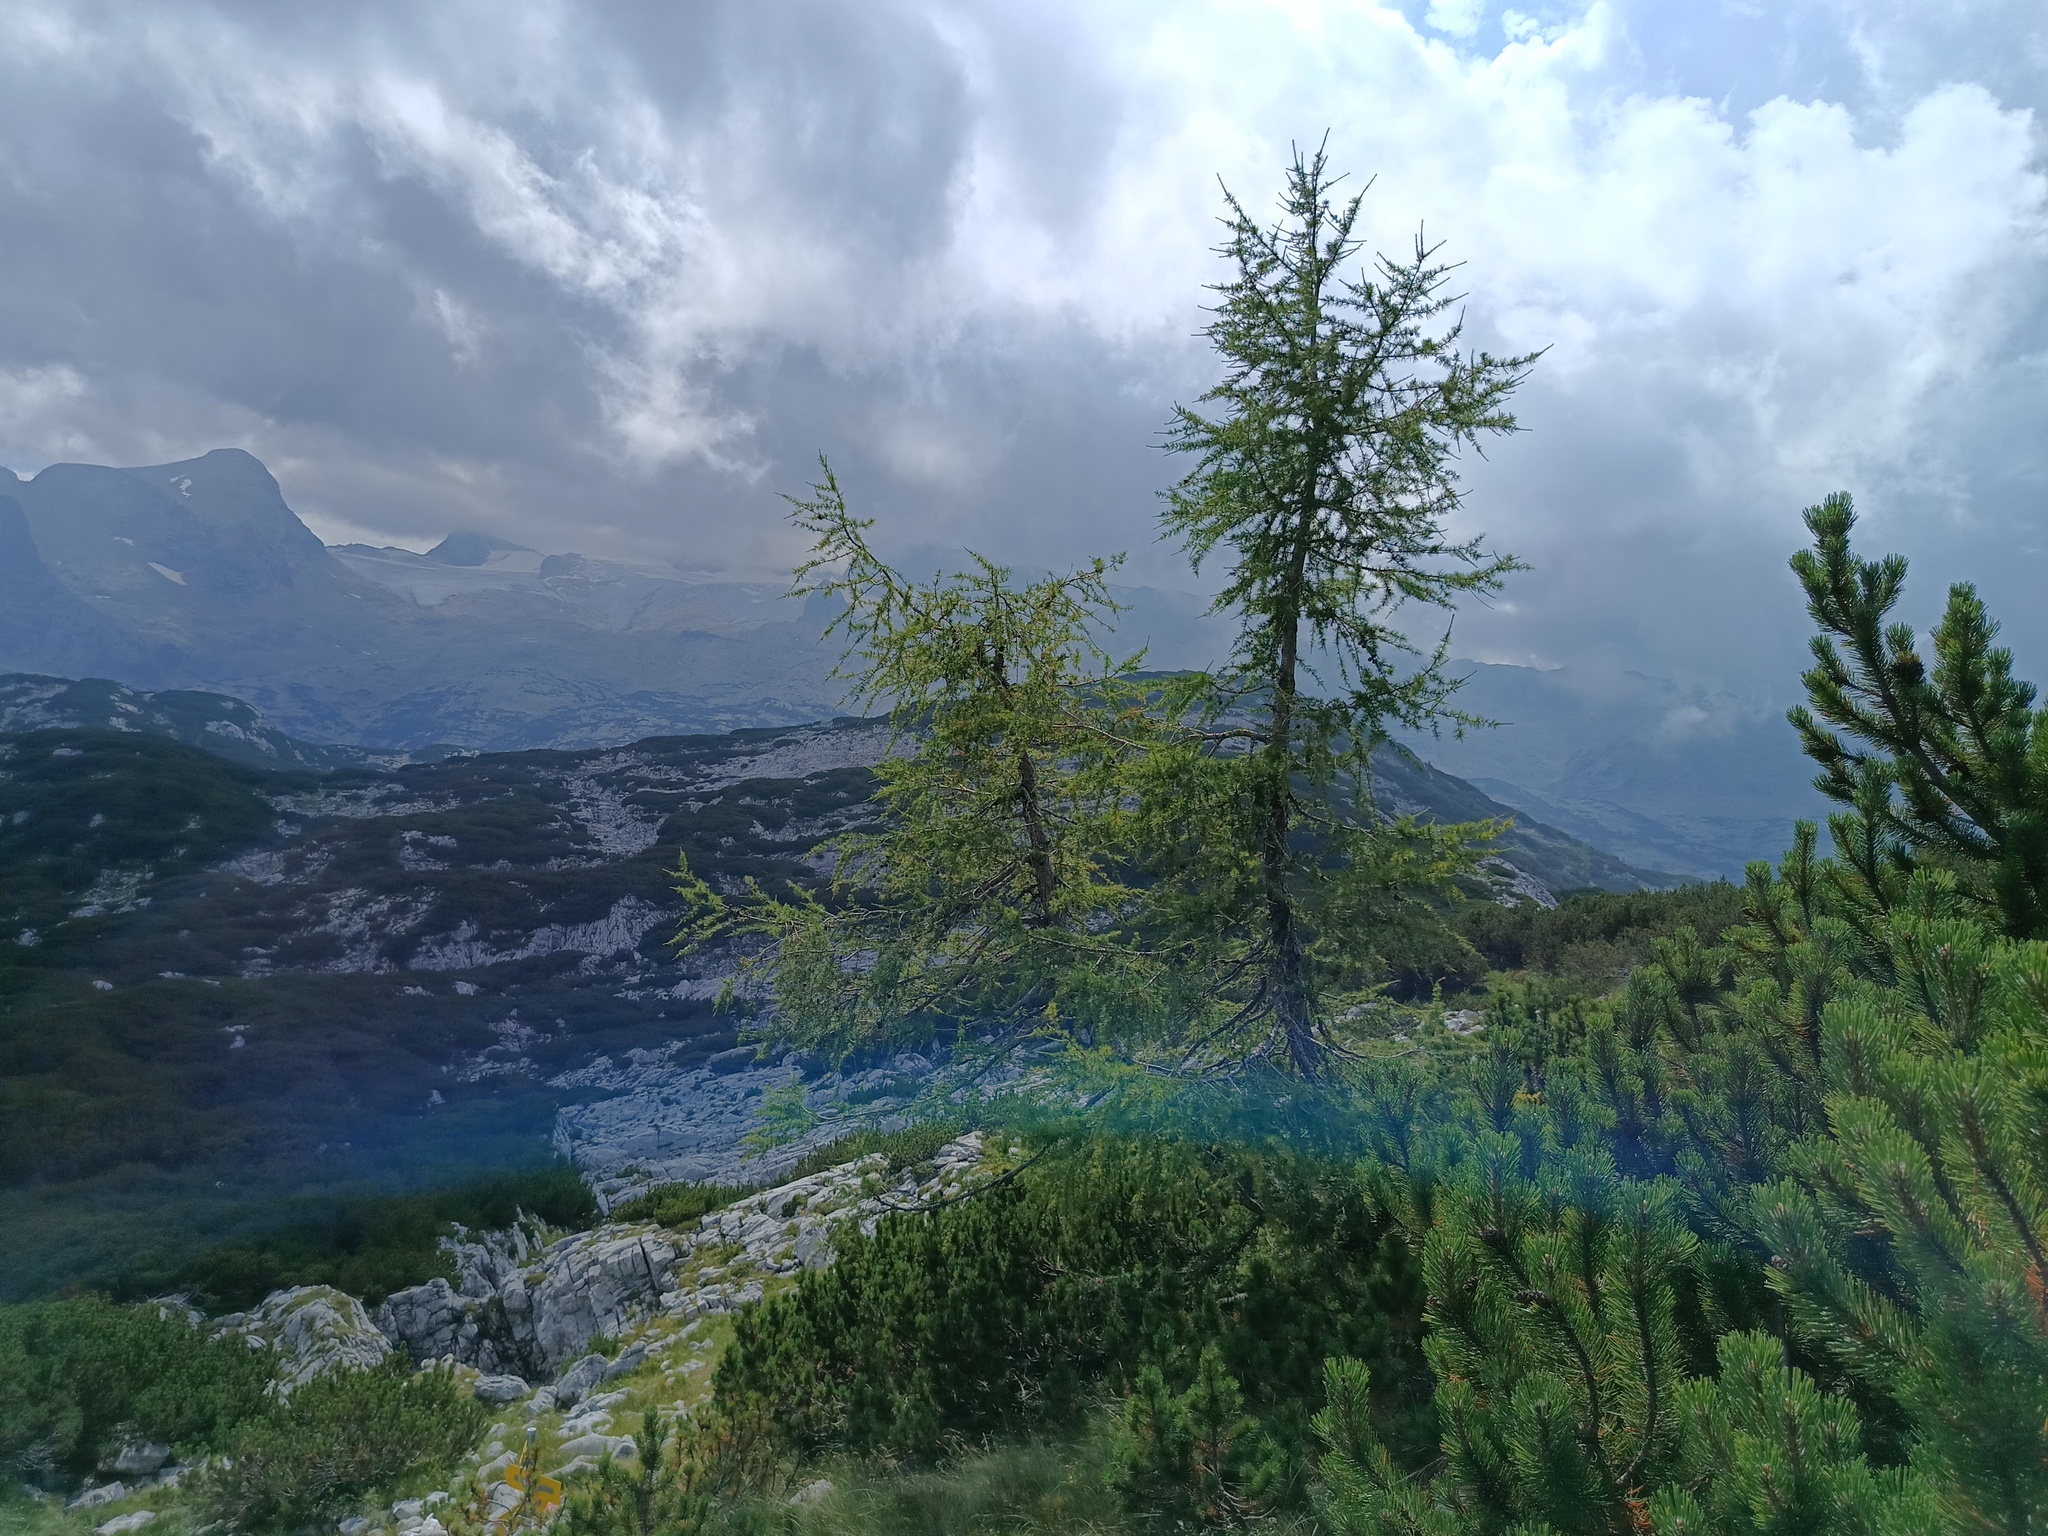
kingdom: Plantae
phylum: Tracheophyta
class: Pinopsida
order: Pinales
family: Pinaceae
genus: Larix
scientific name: Larix decidua
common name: European larch
